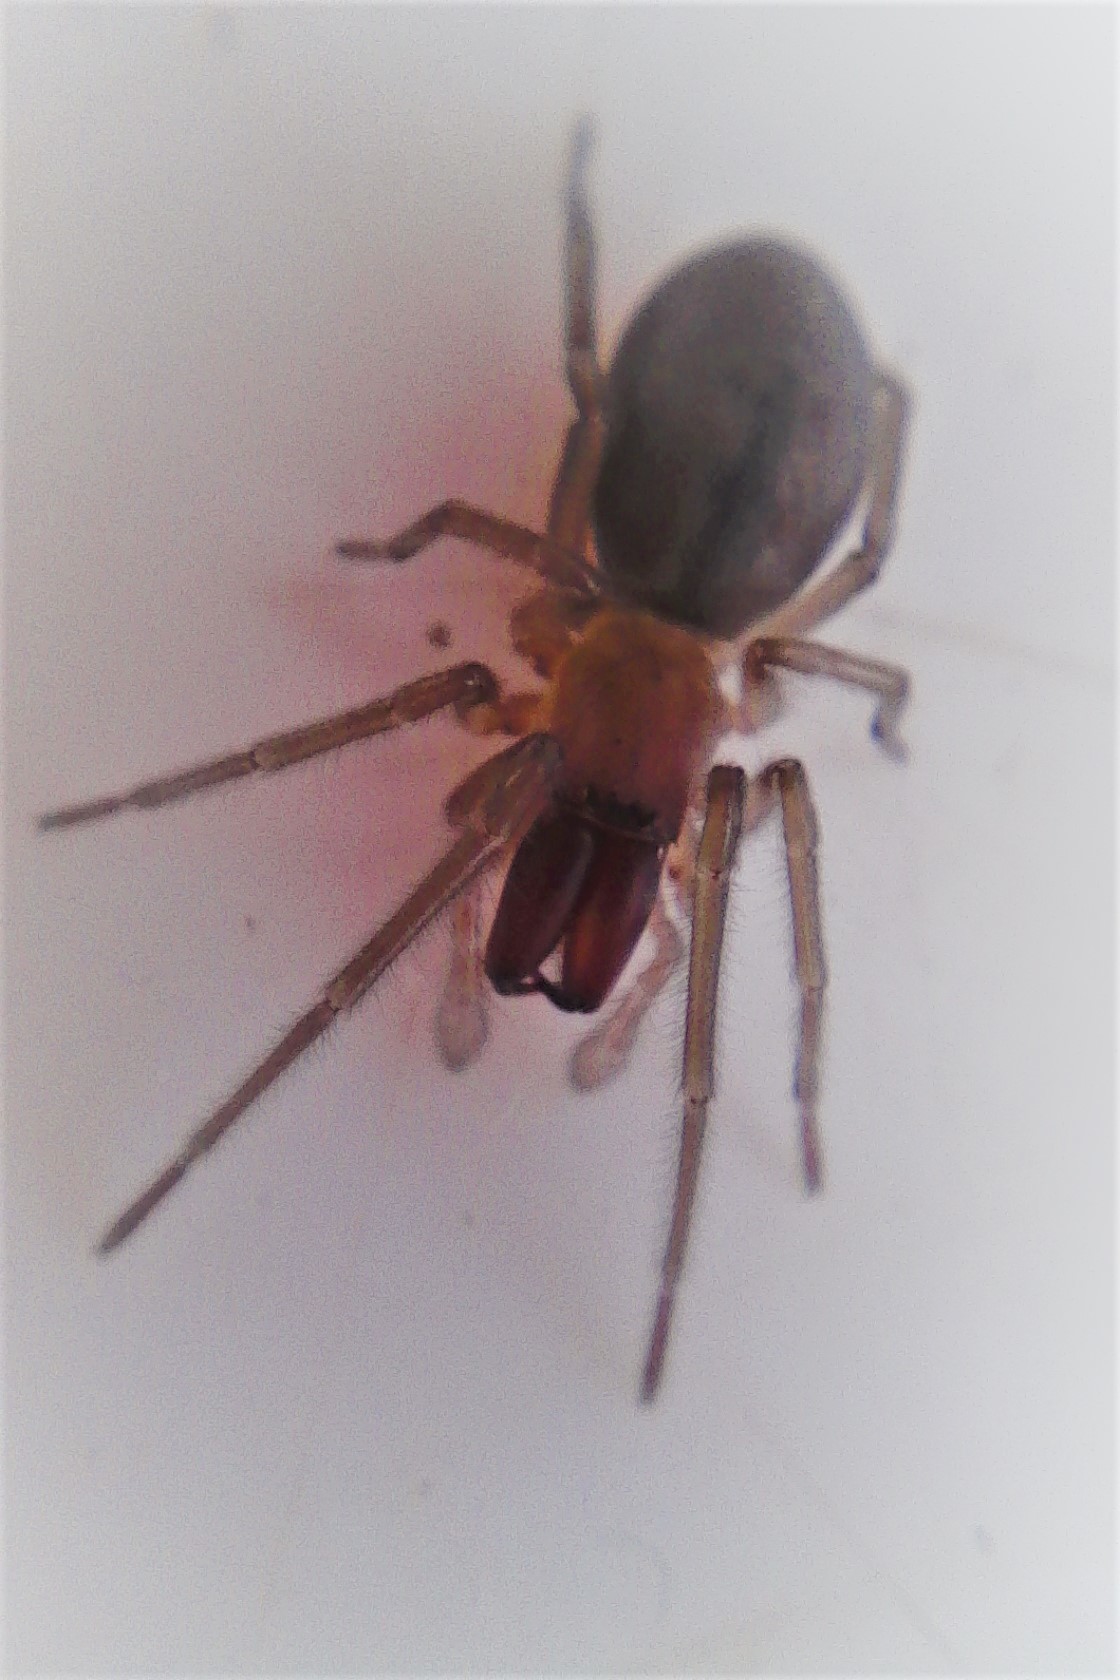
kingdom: Animalia
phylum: Arthropoda
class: Arachnida
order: Araneae
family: Desidae
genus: Desis
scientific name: Desis marina
